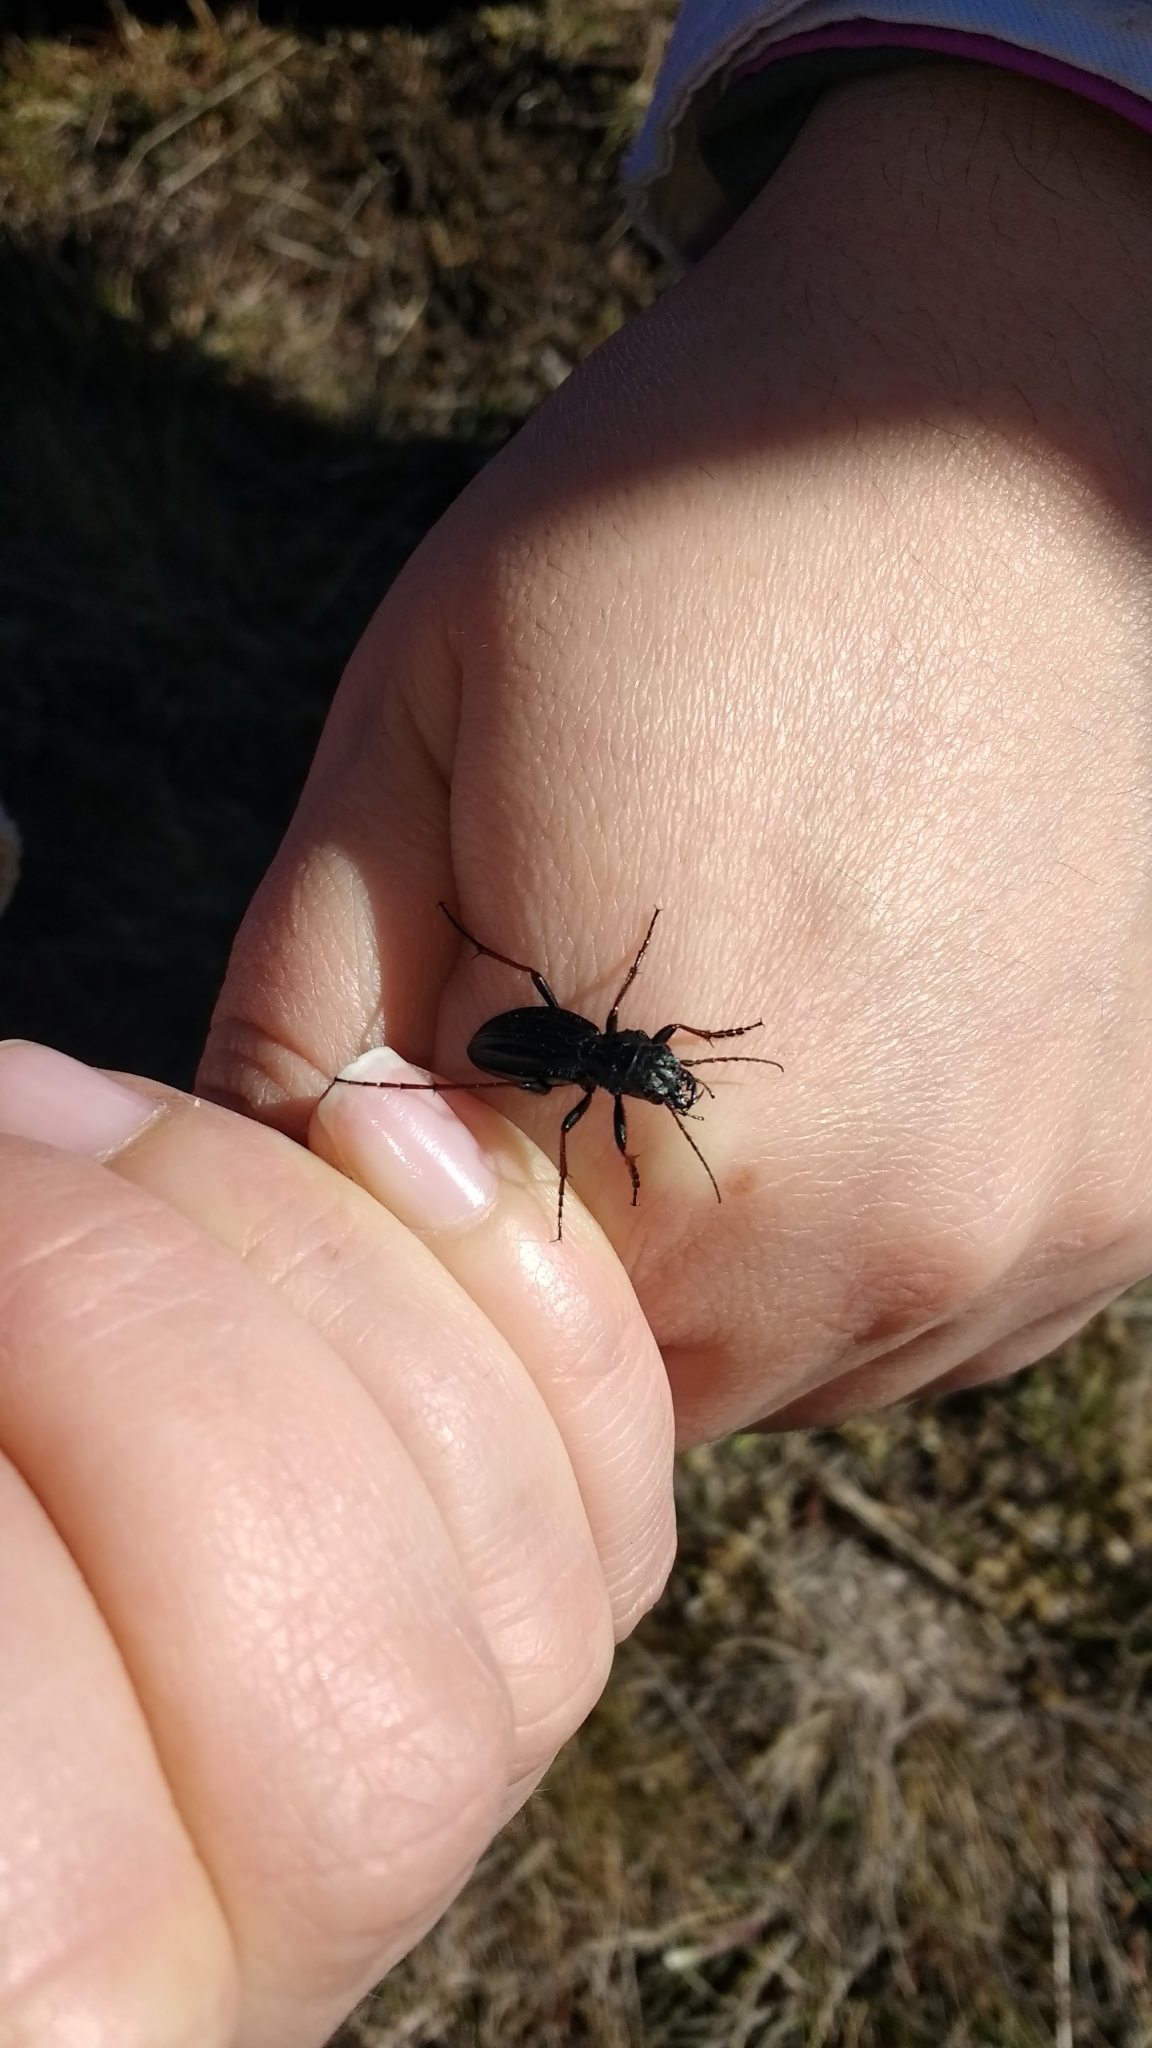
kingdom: Animalia
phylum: Arthropoda
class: Insecta
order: Coleoptera
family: Carabidae
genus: Picnochile
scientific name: Picnochile fallaciosa
